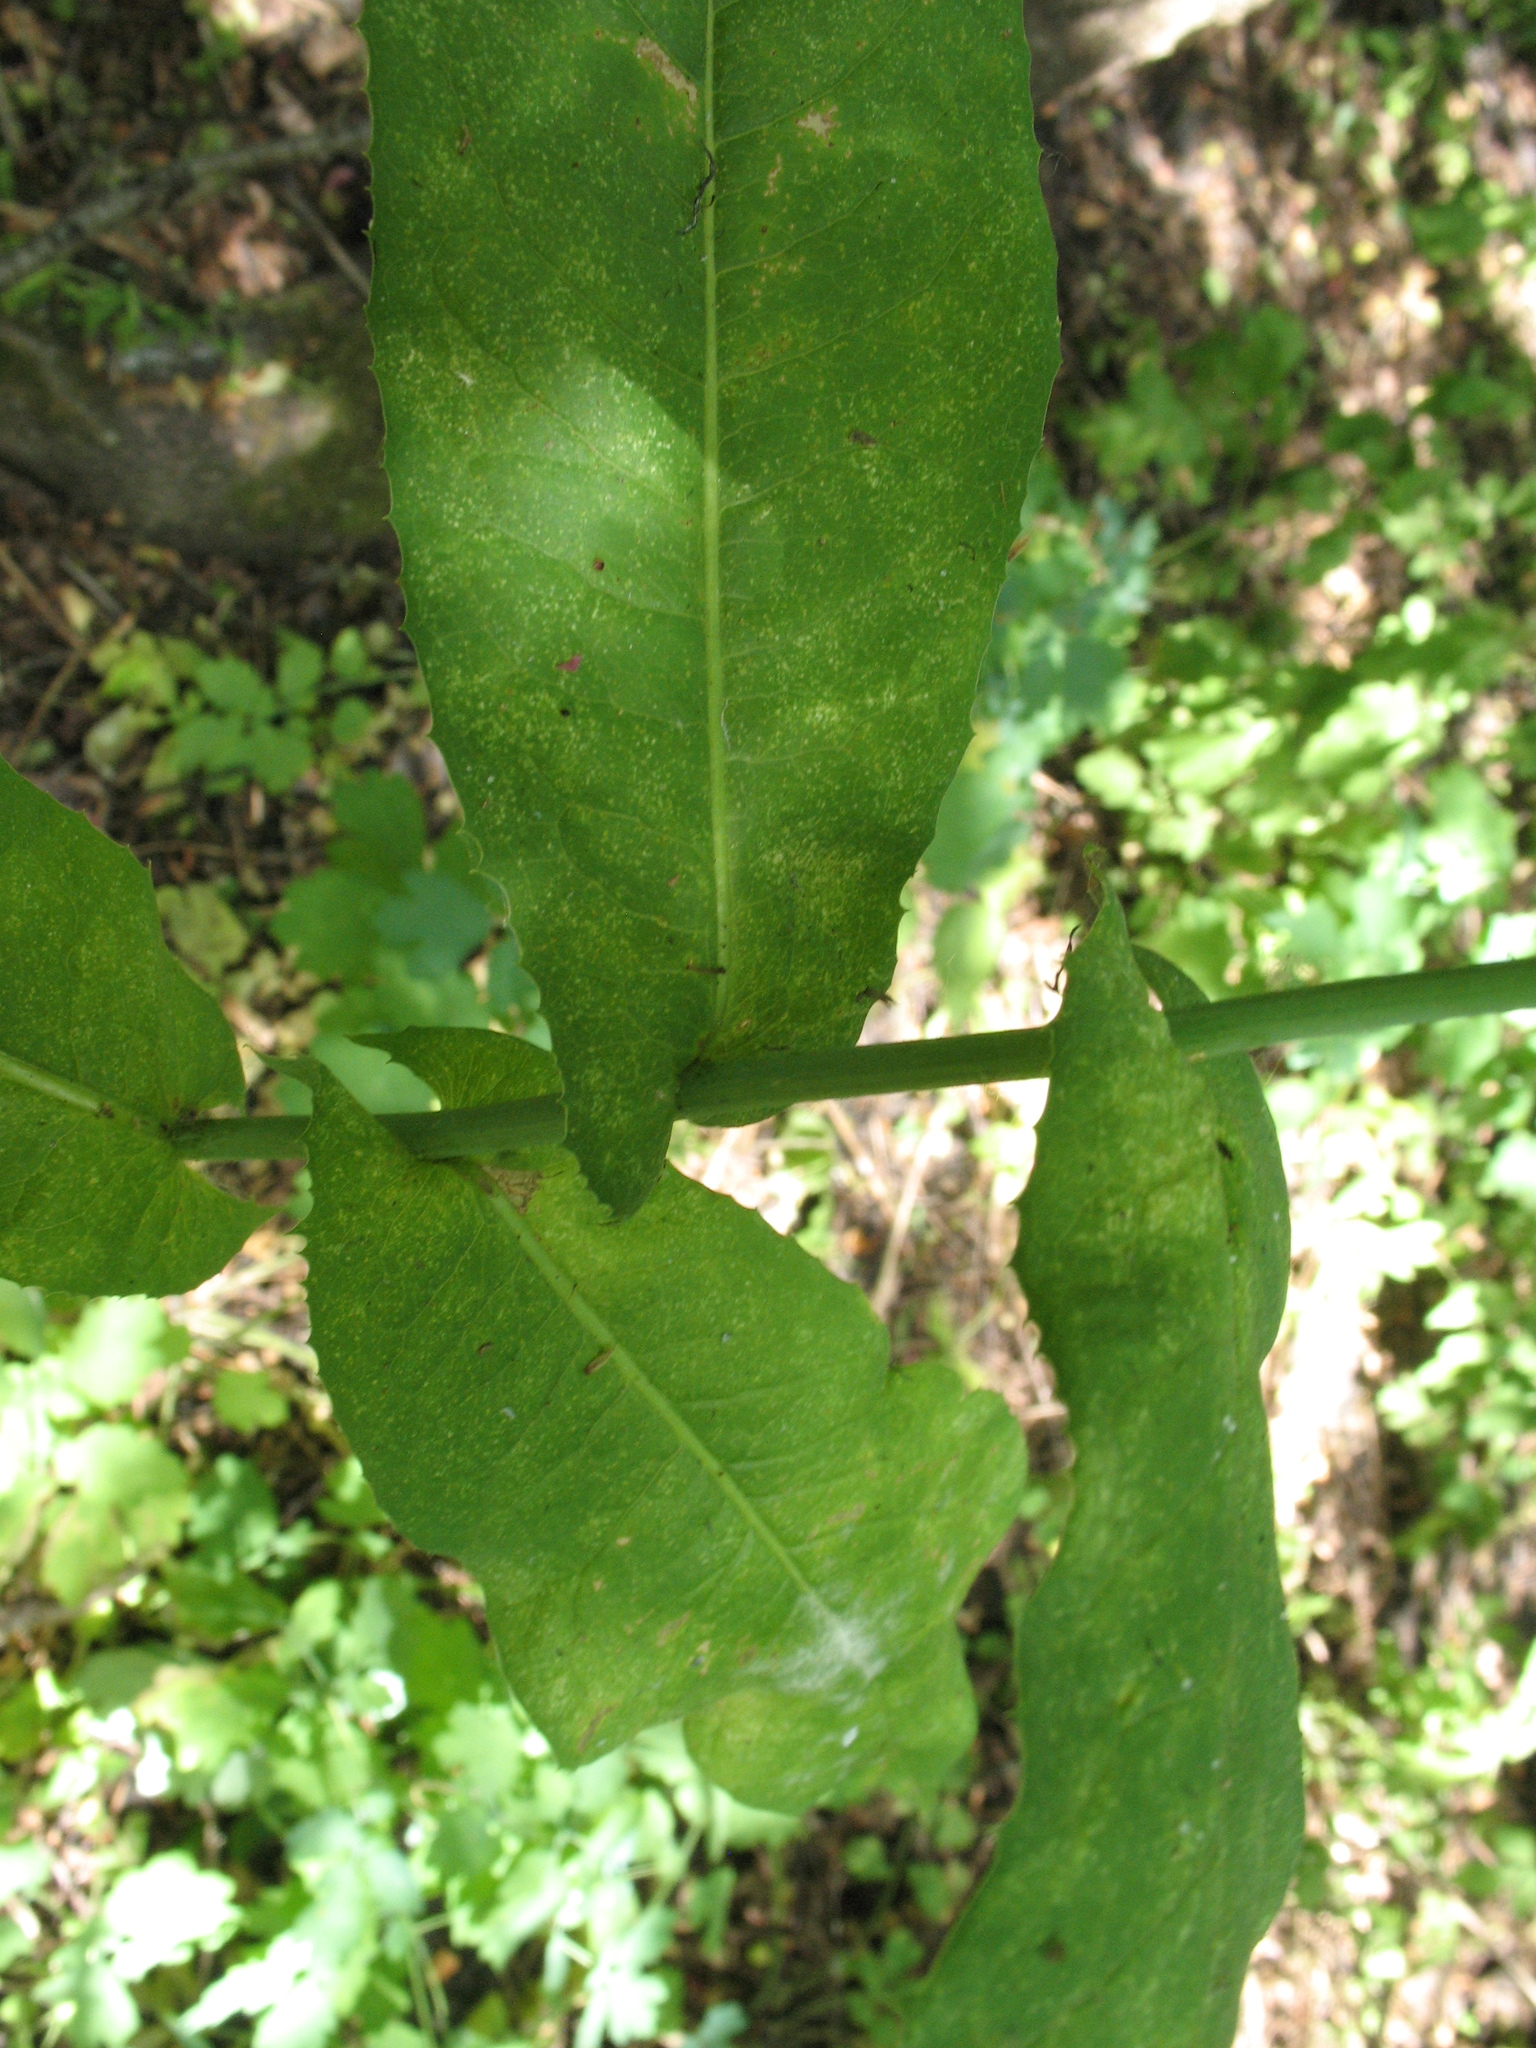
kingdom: Plantae
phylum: Tracheophyta
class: Magnoliopsida
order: Asterales
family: Asteraceae
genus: Lactuca
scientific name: Lactuca quercina
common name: Wild lettuce
